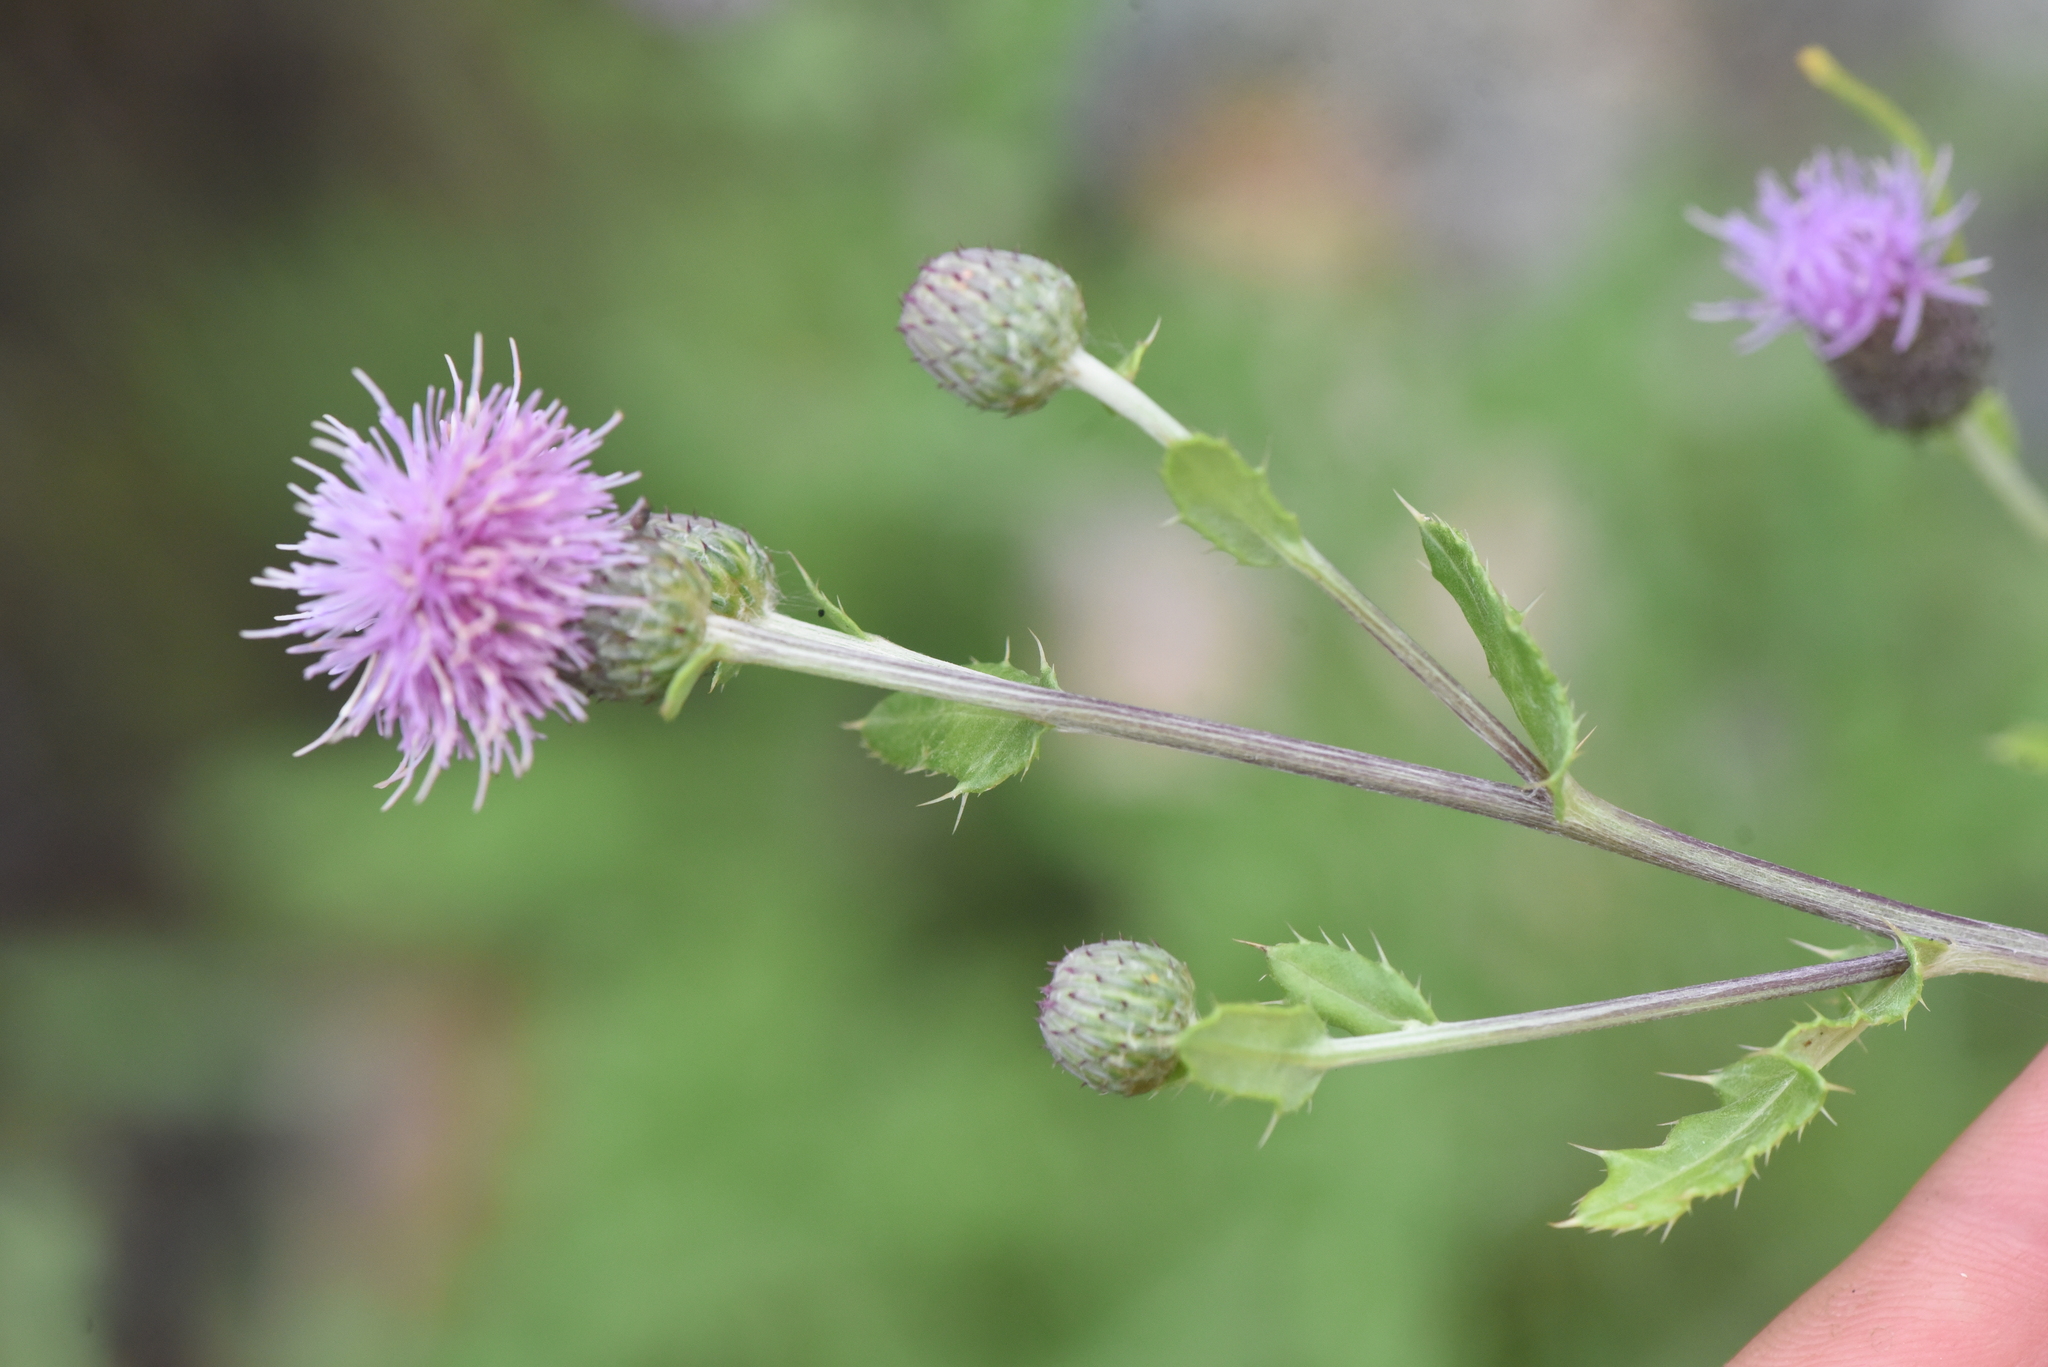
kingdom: Plantae
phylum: Tracheophyta
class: Magnoliopsida
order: Asterales
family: Asteraceae
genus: Cirsium
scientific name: Cirsium arvense
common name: Creeping thistle
